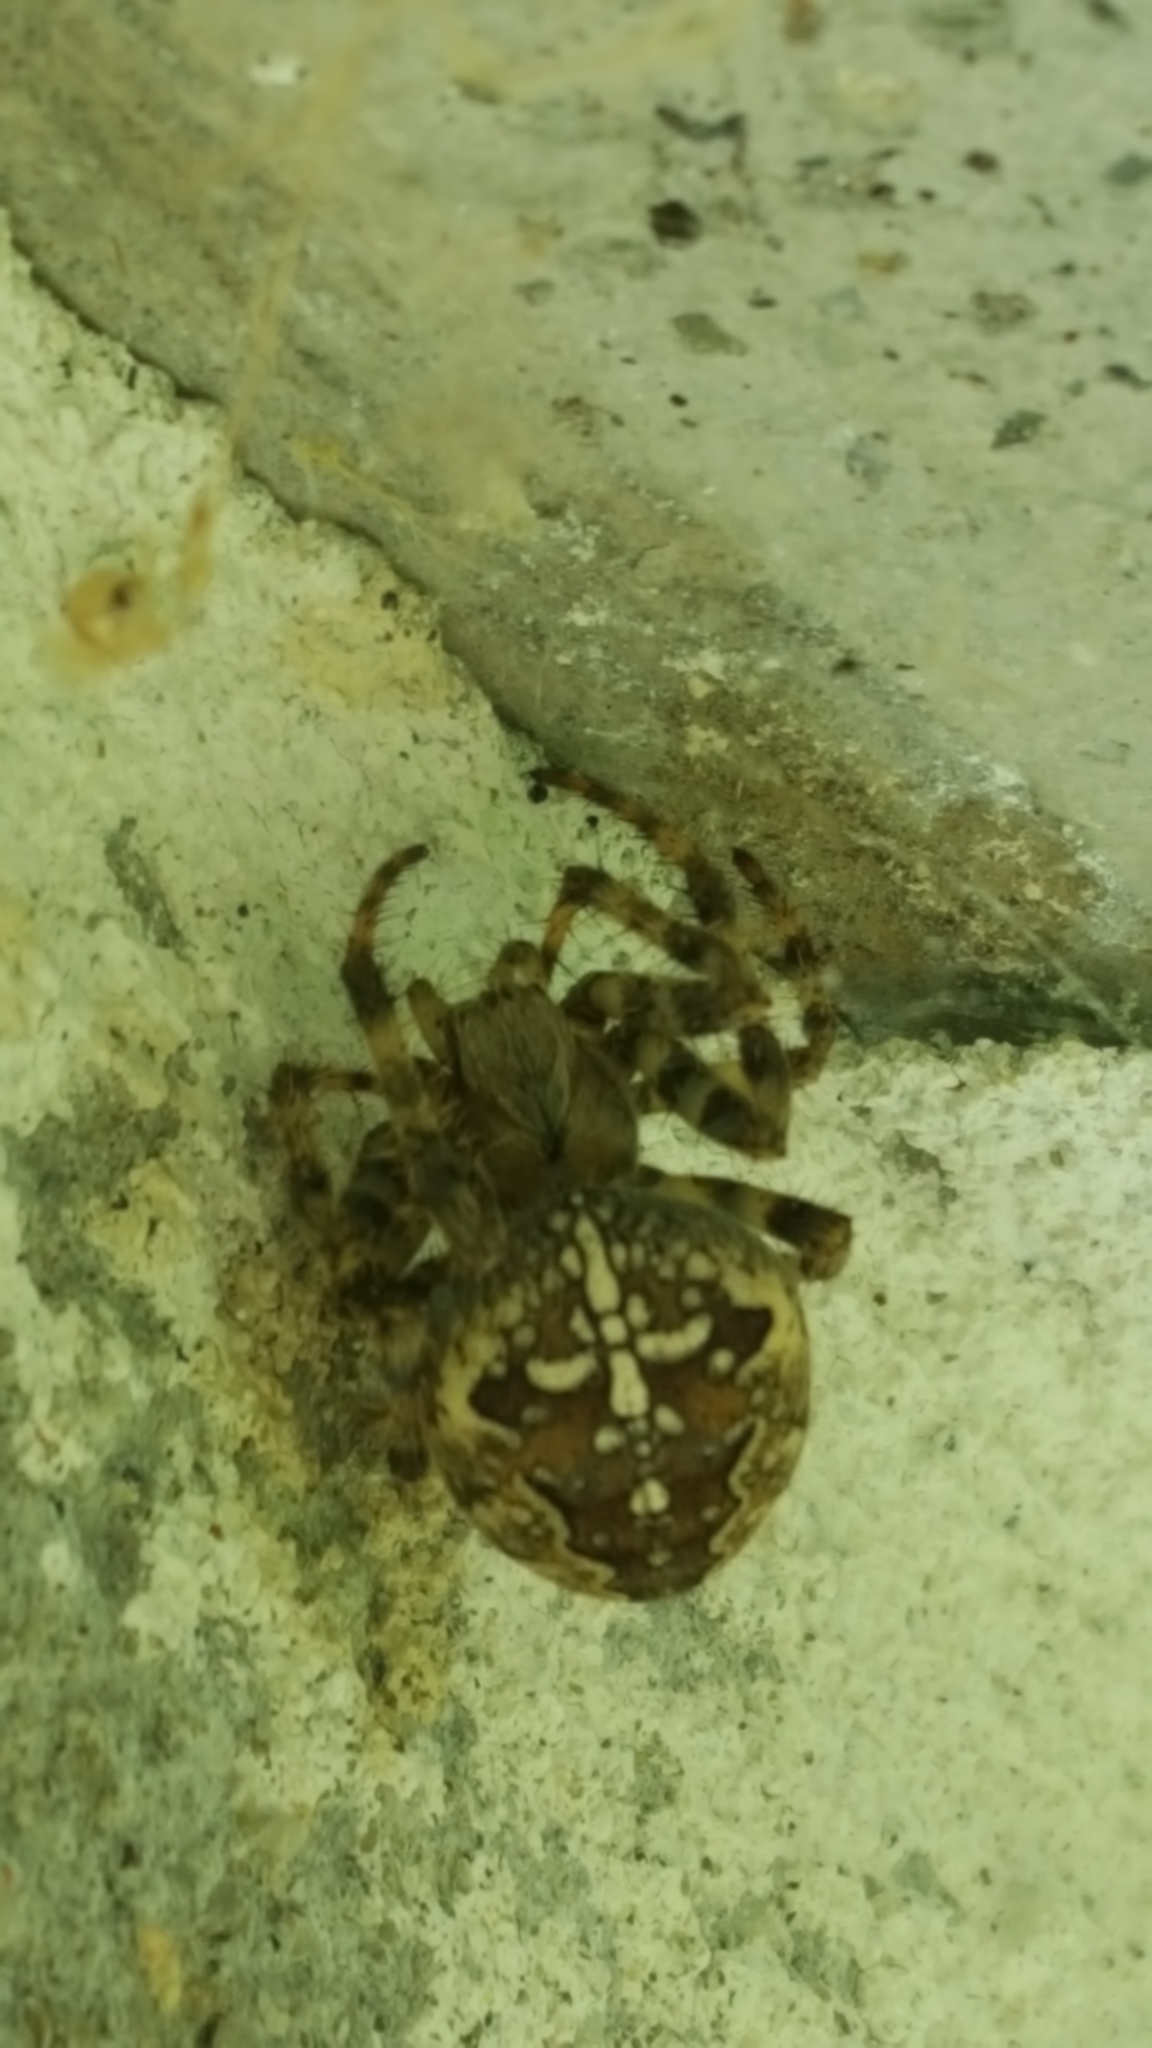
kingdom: Animalia
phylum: Arthropoda
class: Arachnida
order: Araneae
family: Araneidae
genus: Araneus
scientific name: Araneus diadematus
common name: Cross orbweaver
